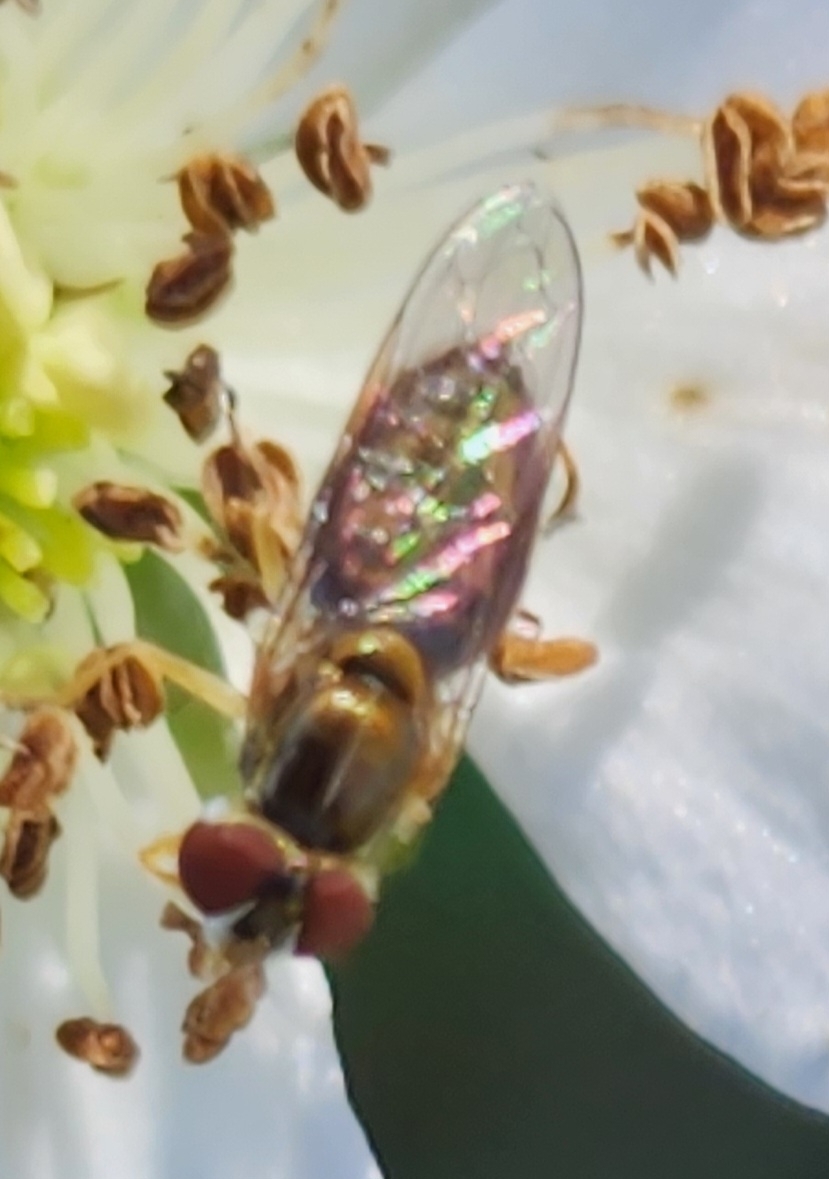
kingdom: Animalia
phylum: Arthropoda
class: Insecta
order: Diptera
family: Syrphidae
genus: Toxomerus
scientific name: Toxomerus marginatus
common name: Syrphid fly
